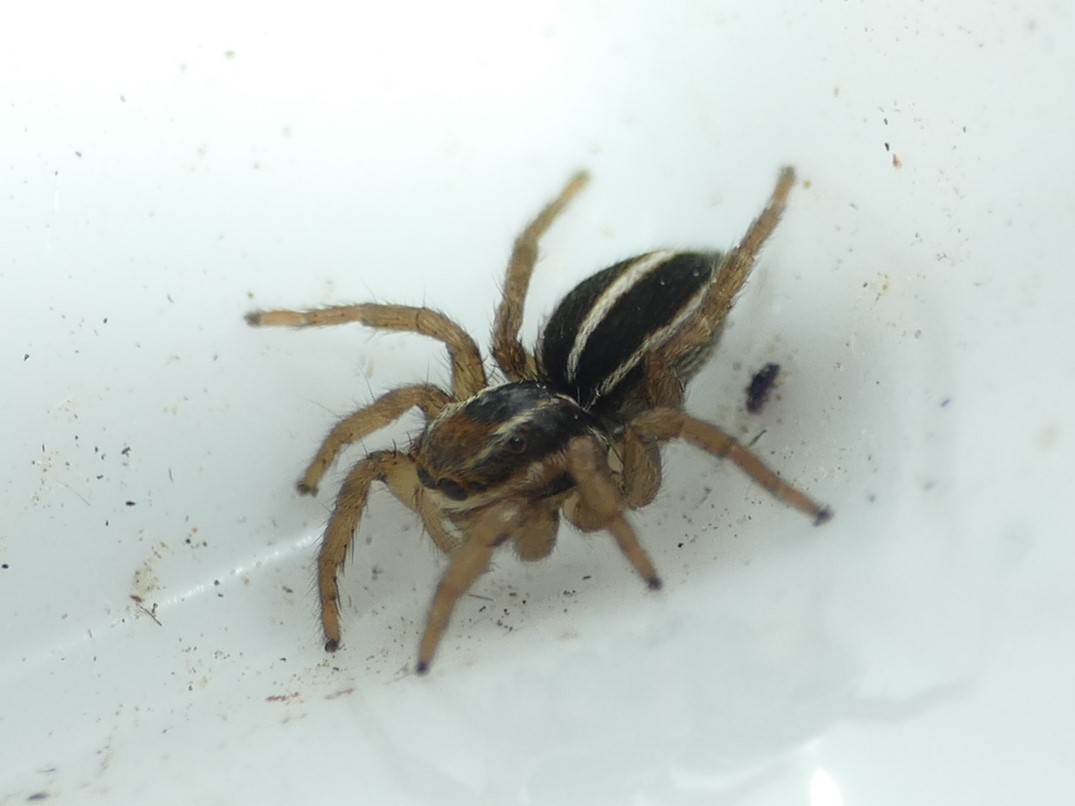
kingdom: Animalia
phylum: Arthropoda
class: Arachnida
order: Araneae
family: Salticidae
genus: Phlegra
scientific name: Phlegra bresnieri
